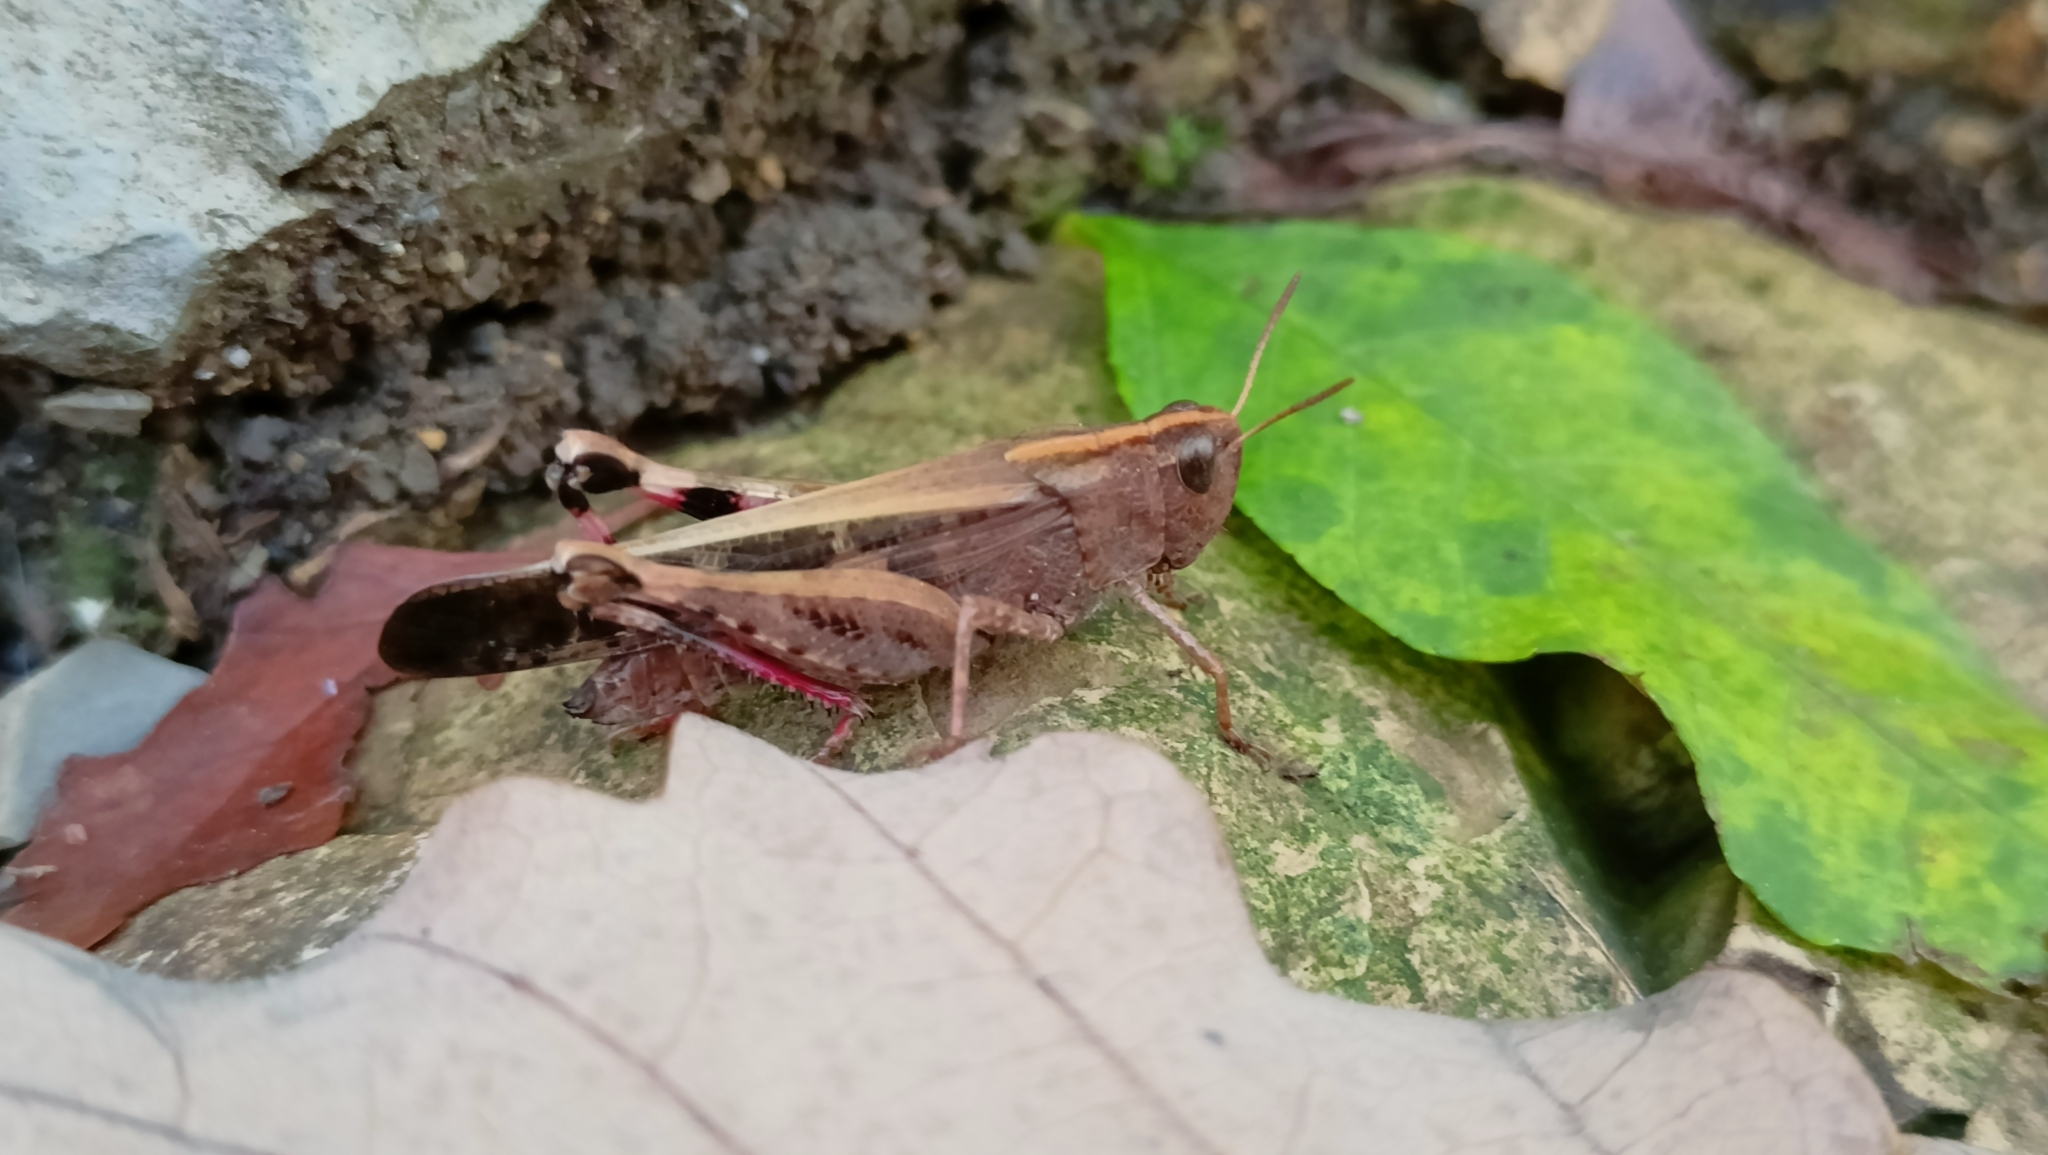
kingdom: Animalia
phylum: Arthropoda
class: Insecta
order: Orthoptera
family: Acrididae
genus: Aiolopus
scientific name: Aiolopus strepens
